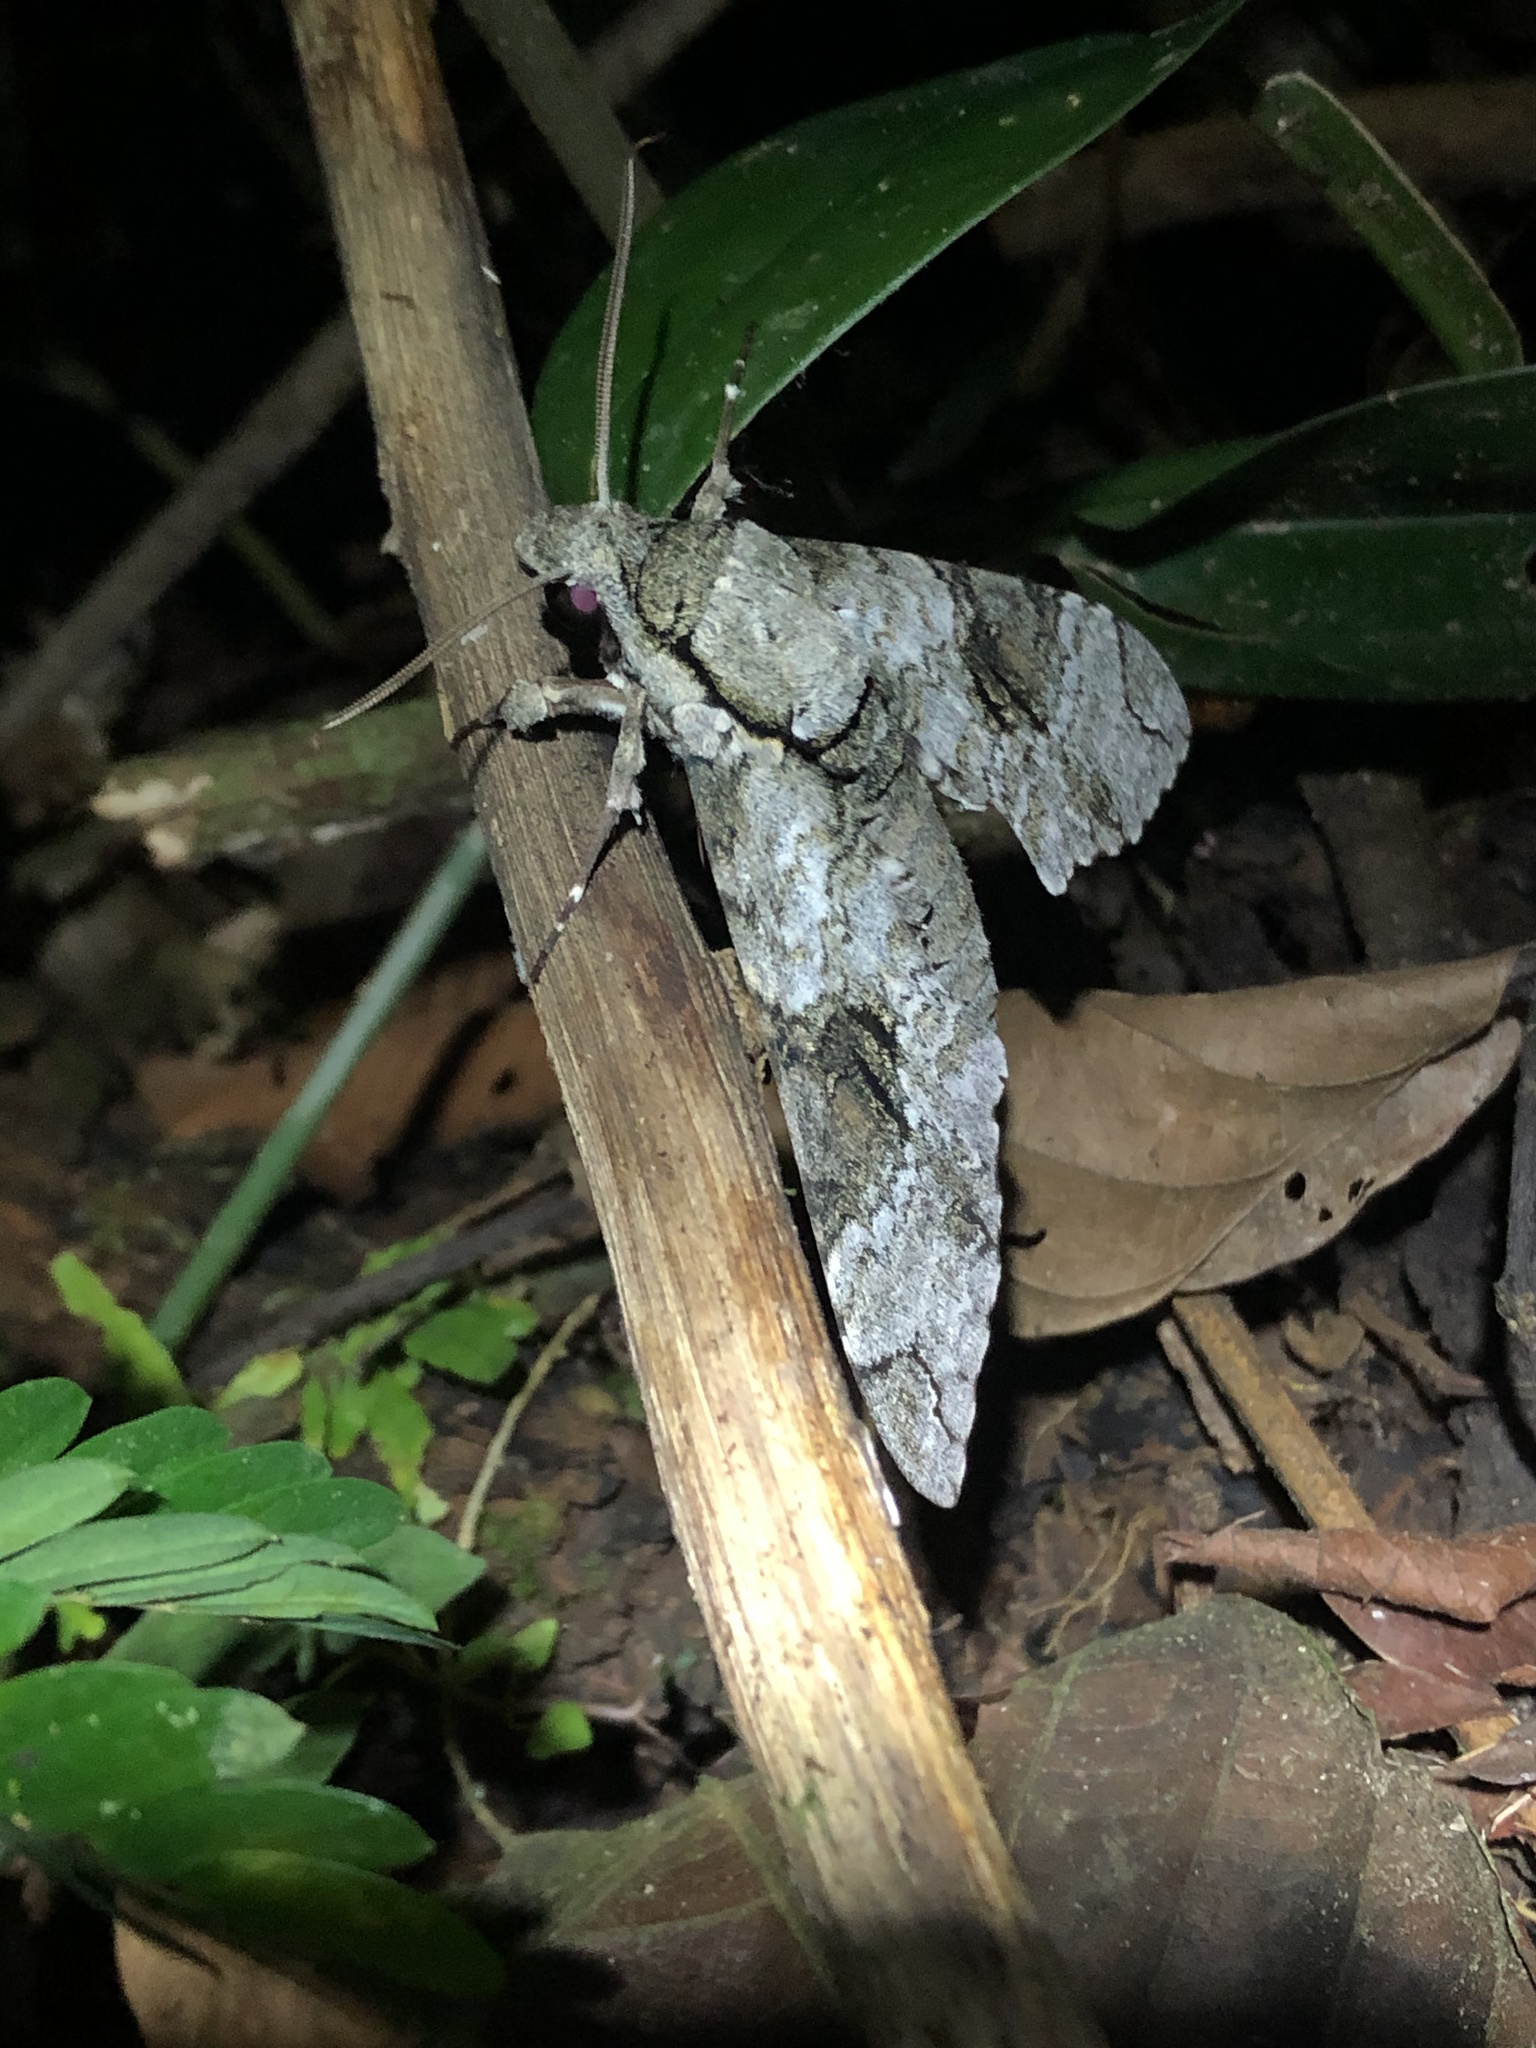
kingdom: Animalia
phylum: Arthropoda
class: Insecta
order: Lepidoptera
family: Sphingidae
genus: Manduca
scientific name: Manduca florestan
